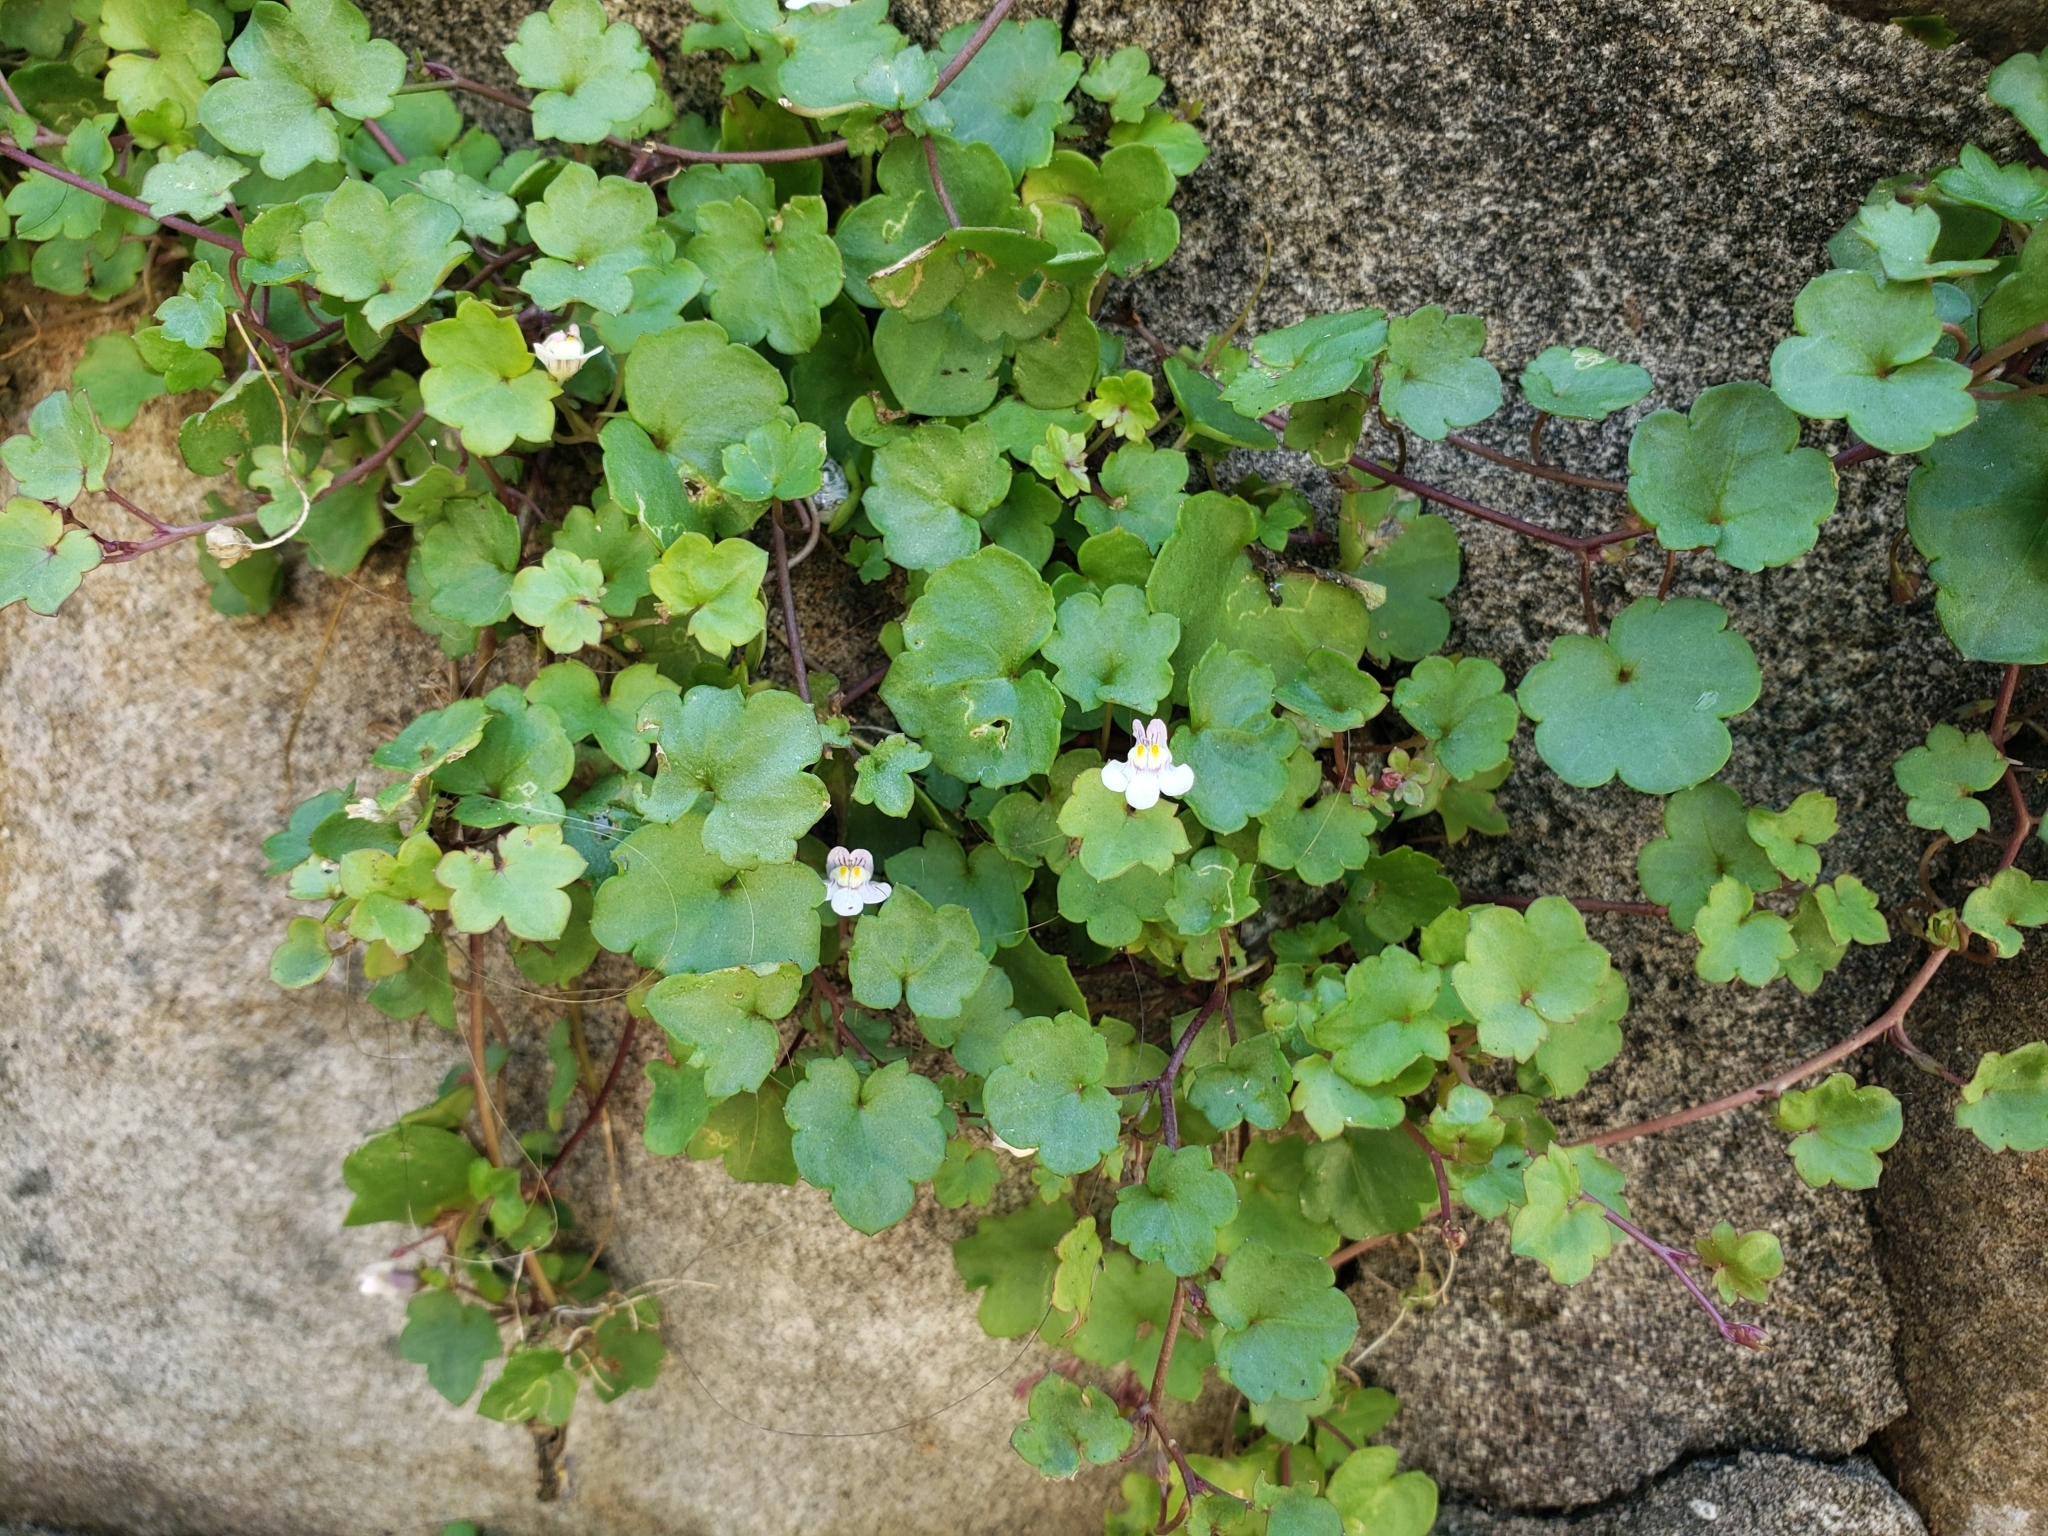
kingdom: Plantae
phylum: Tracheophyta
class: Magnoliopsida
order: Lamiales
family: Plantaginaceae
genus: Cymbalaria
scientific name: Cymbalaria muralis
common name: Ivy-leaved toadflax
